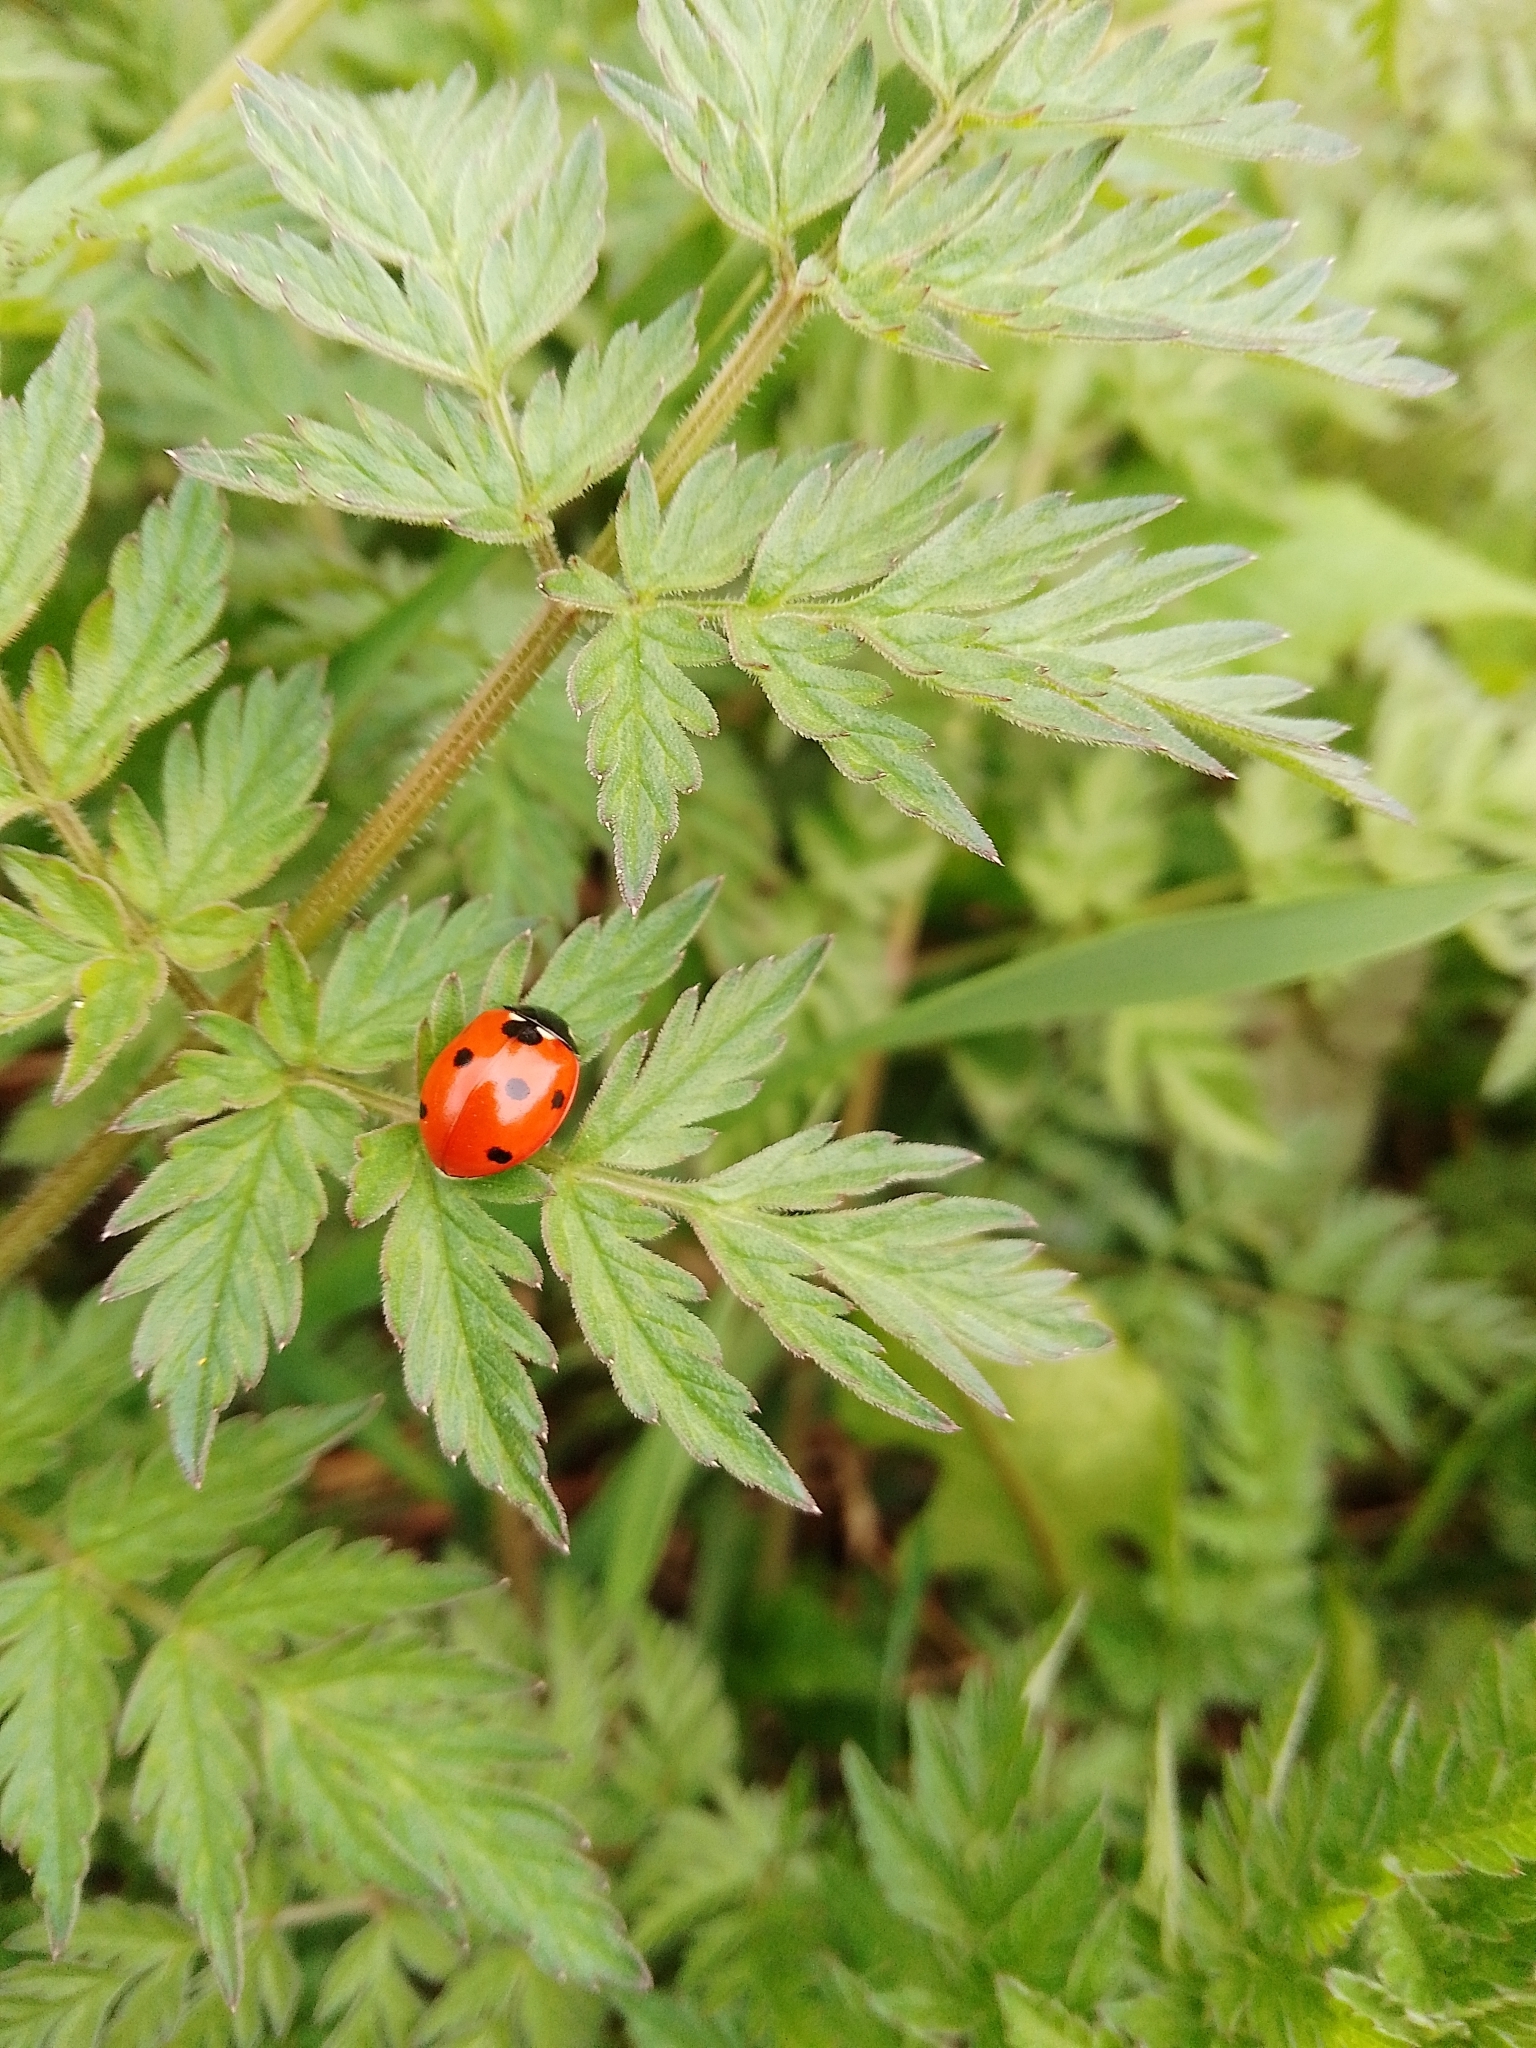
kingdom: Animalia
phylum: Arthropoda
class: Insecta
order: Coleoptera
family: Coccinellidae
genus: Coccinella
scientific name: Coccinella septempunctata
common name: Sevenspotted lady beetle
